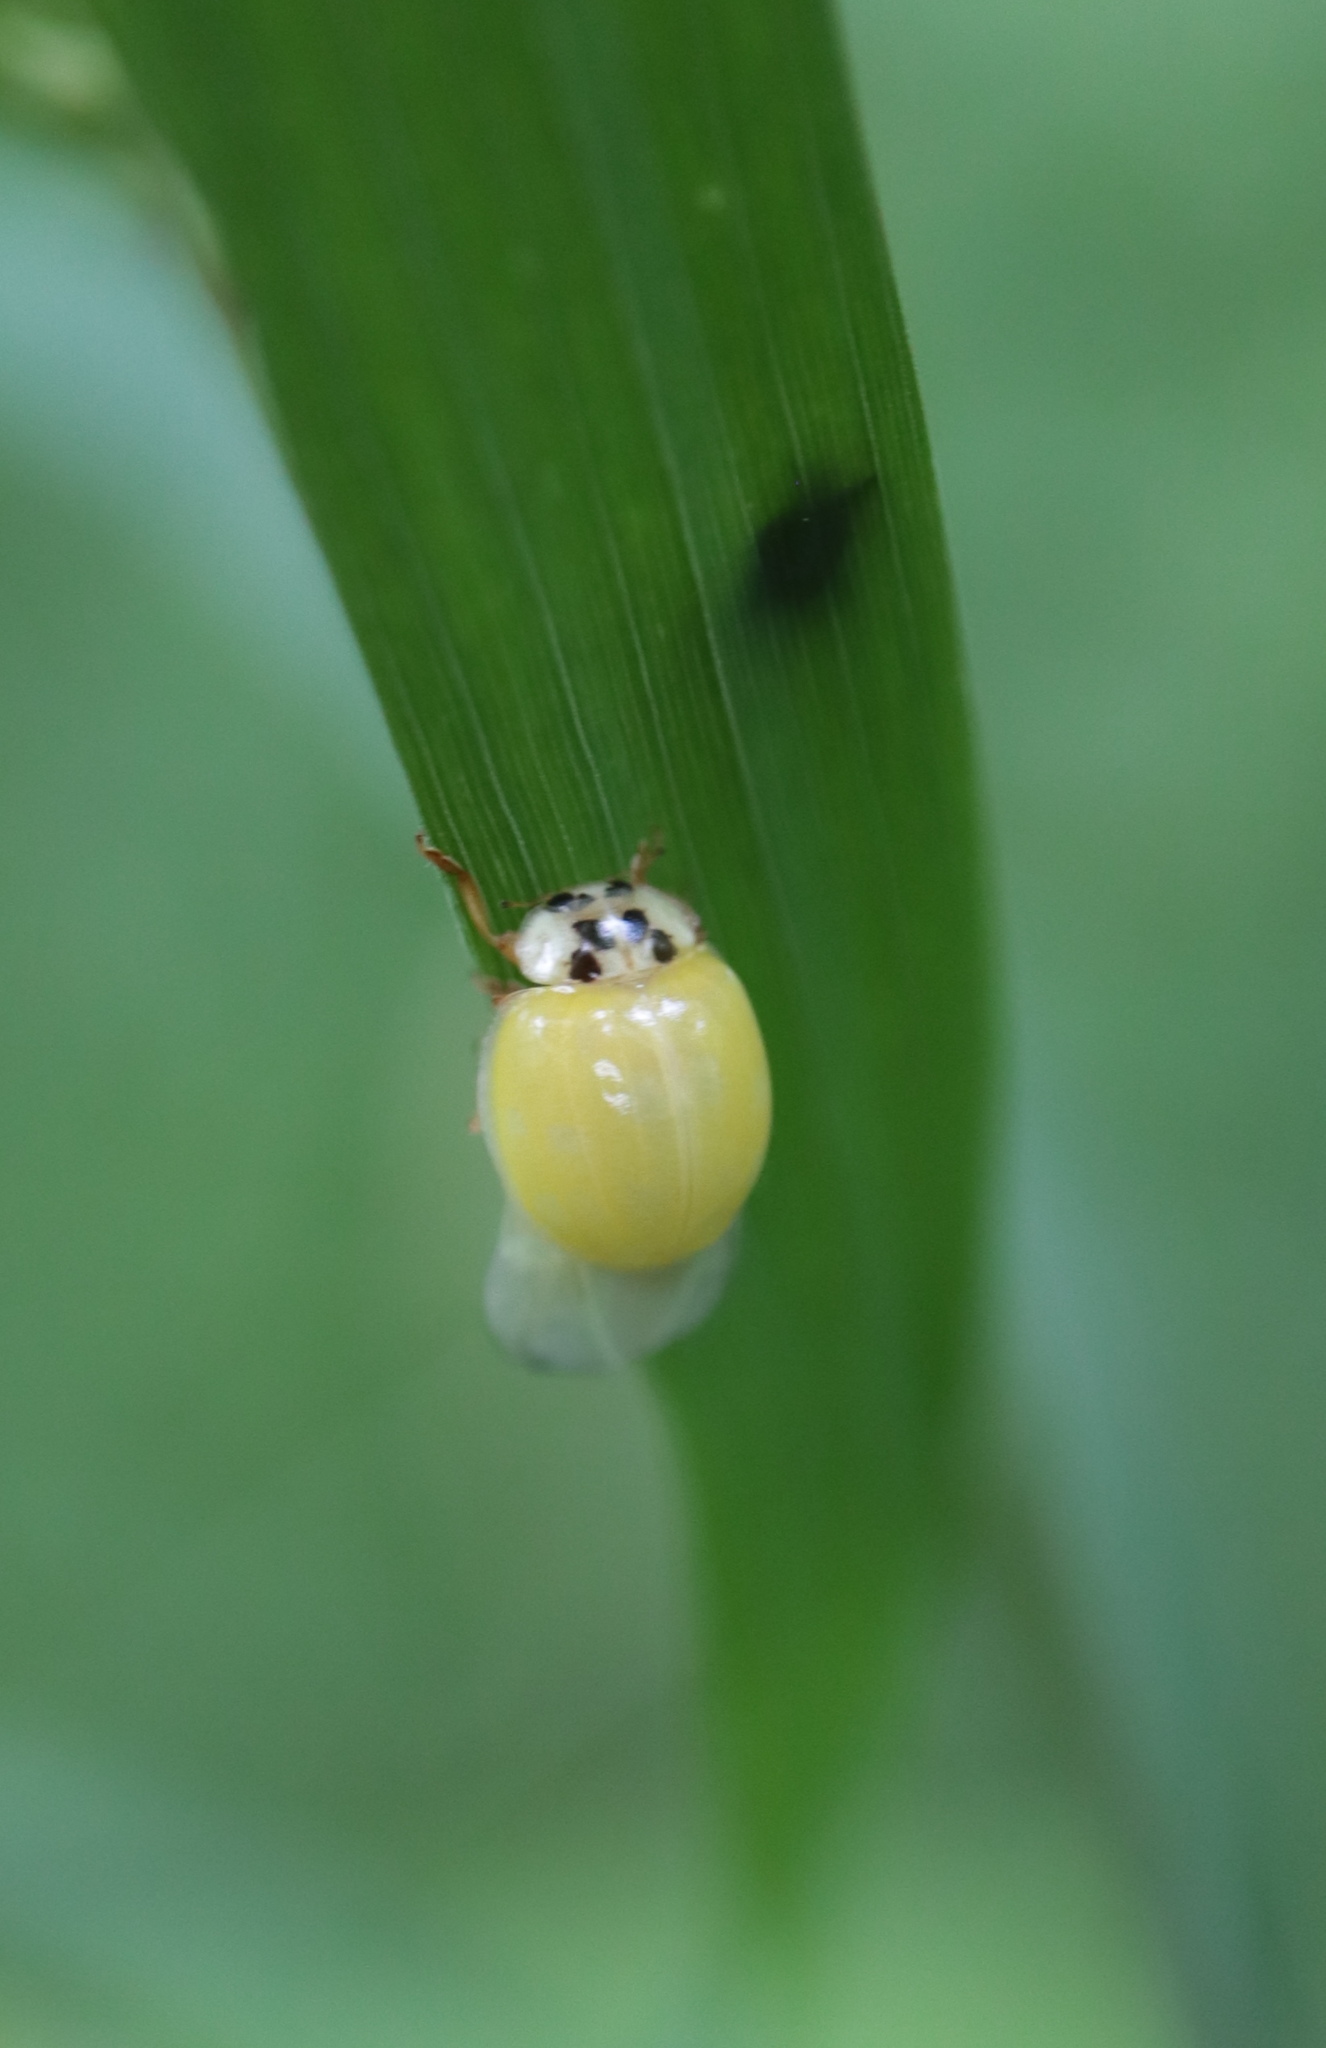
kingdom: Animalia
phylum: Arthropoda
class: Insecta
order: Coleoptera
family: Coccinellidae
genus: Harmonia
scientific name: Harmonia axyridis
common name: Harlequin ladybird
